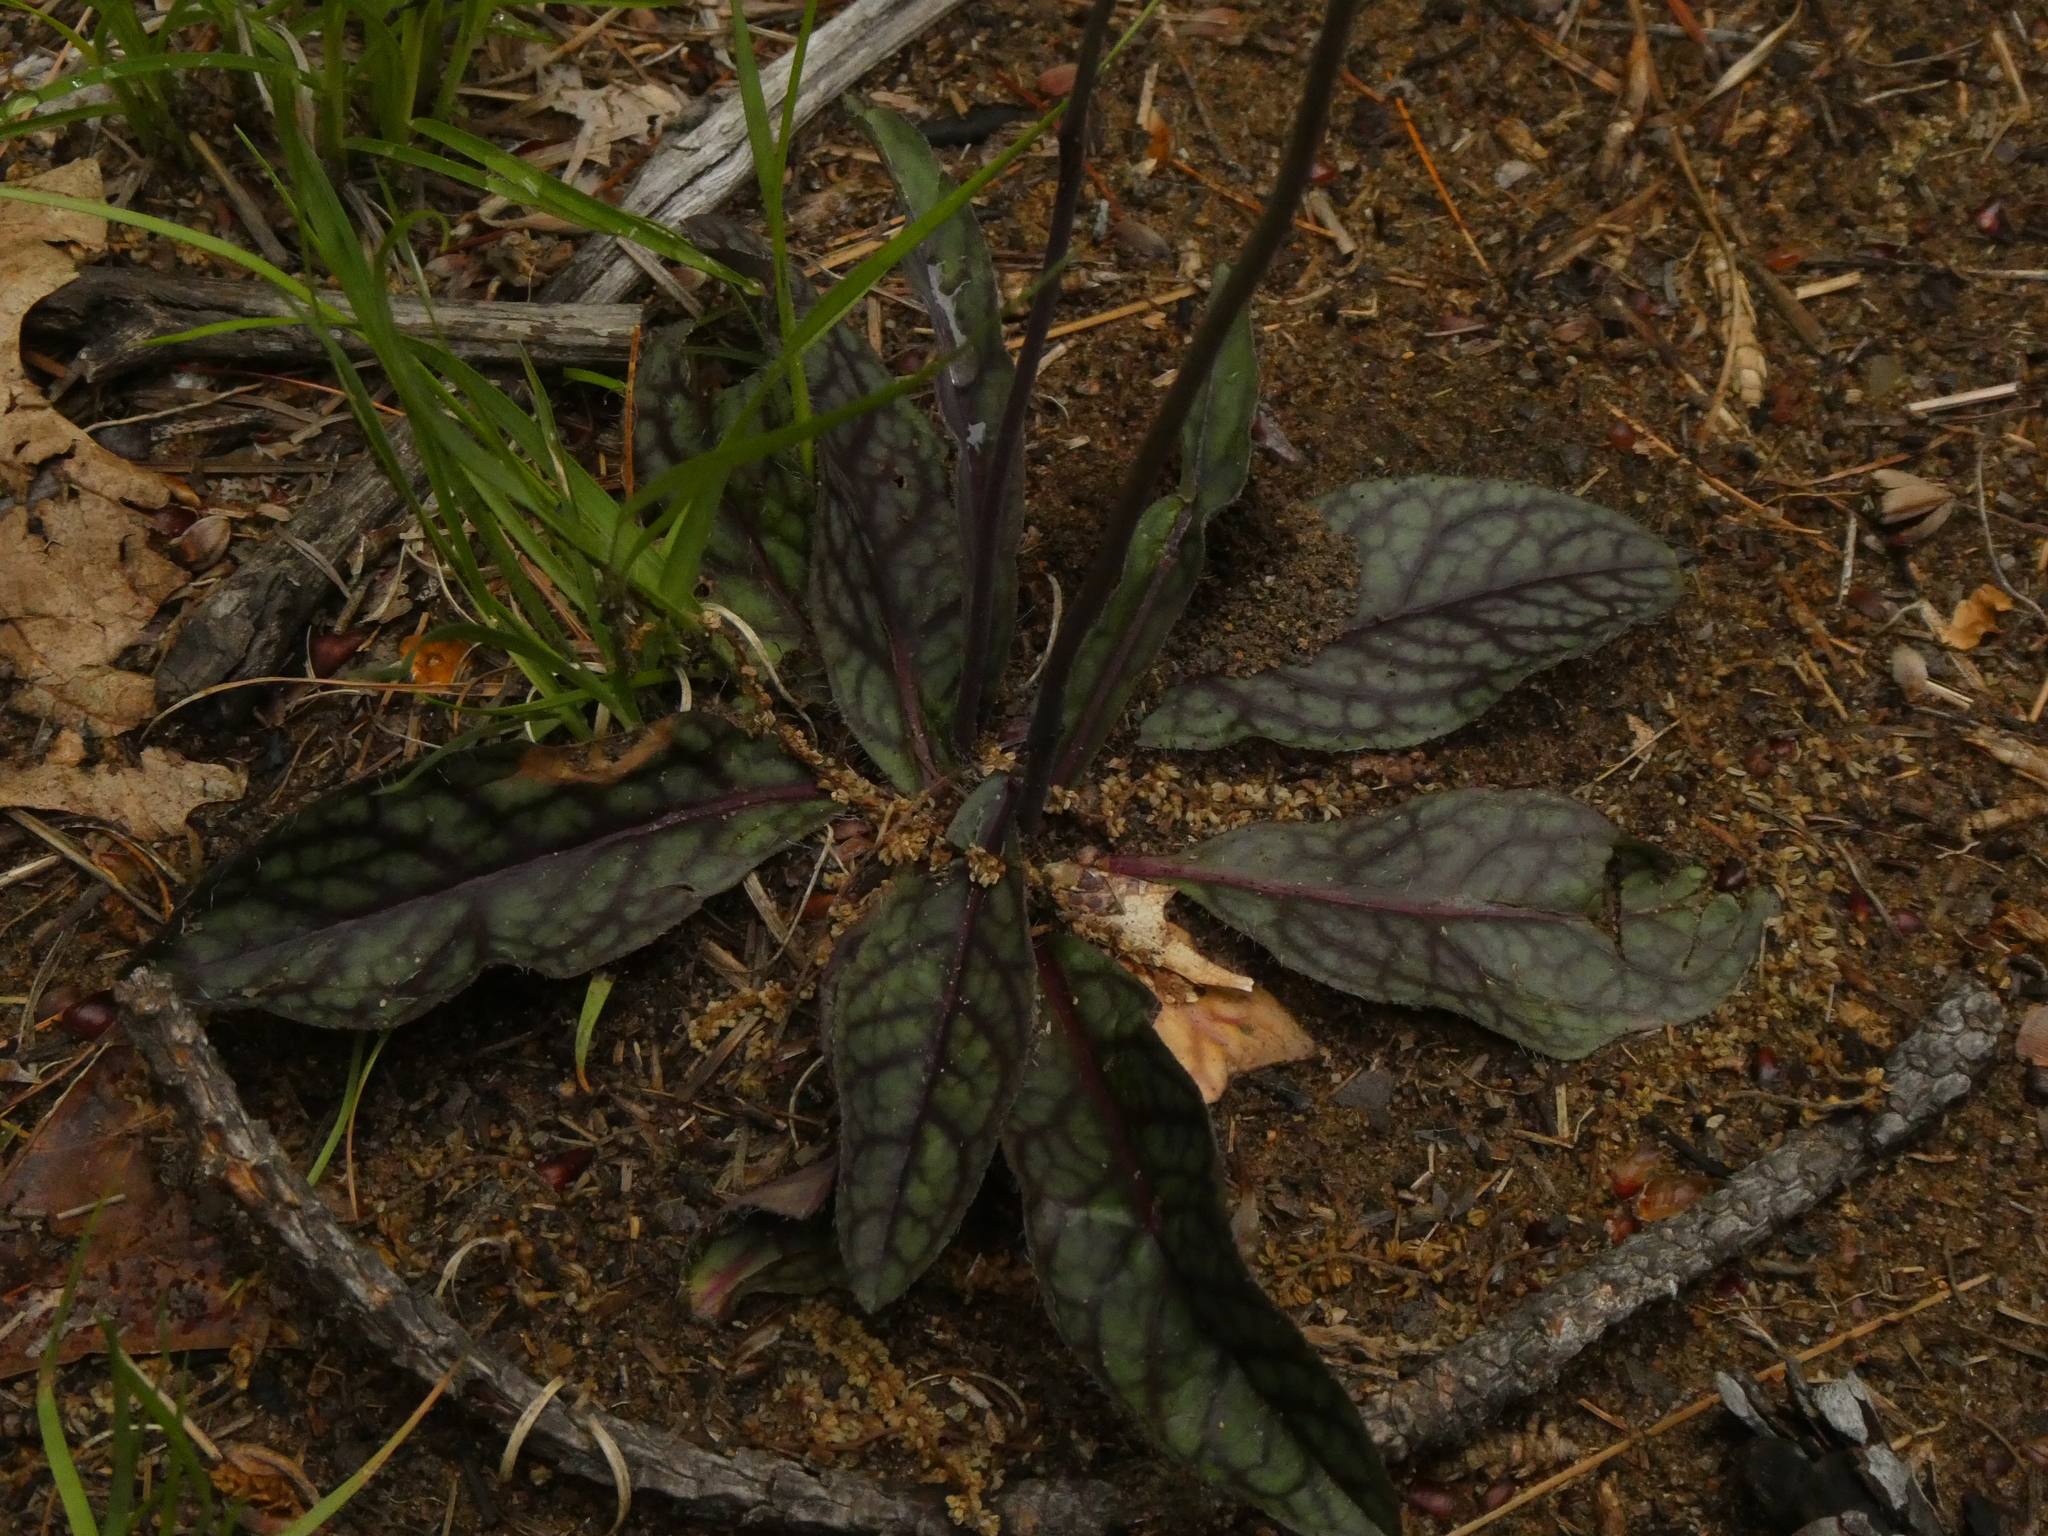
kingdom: Plantae
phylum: Tracheophyta
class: Magnoliopsida
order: Asterales
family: Asteraceae
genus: Hieracium
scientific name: Hieracium venosum
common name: Rattlesnake hawkweed
